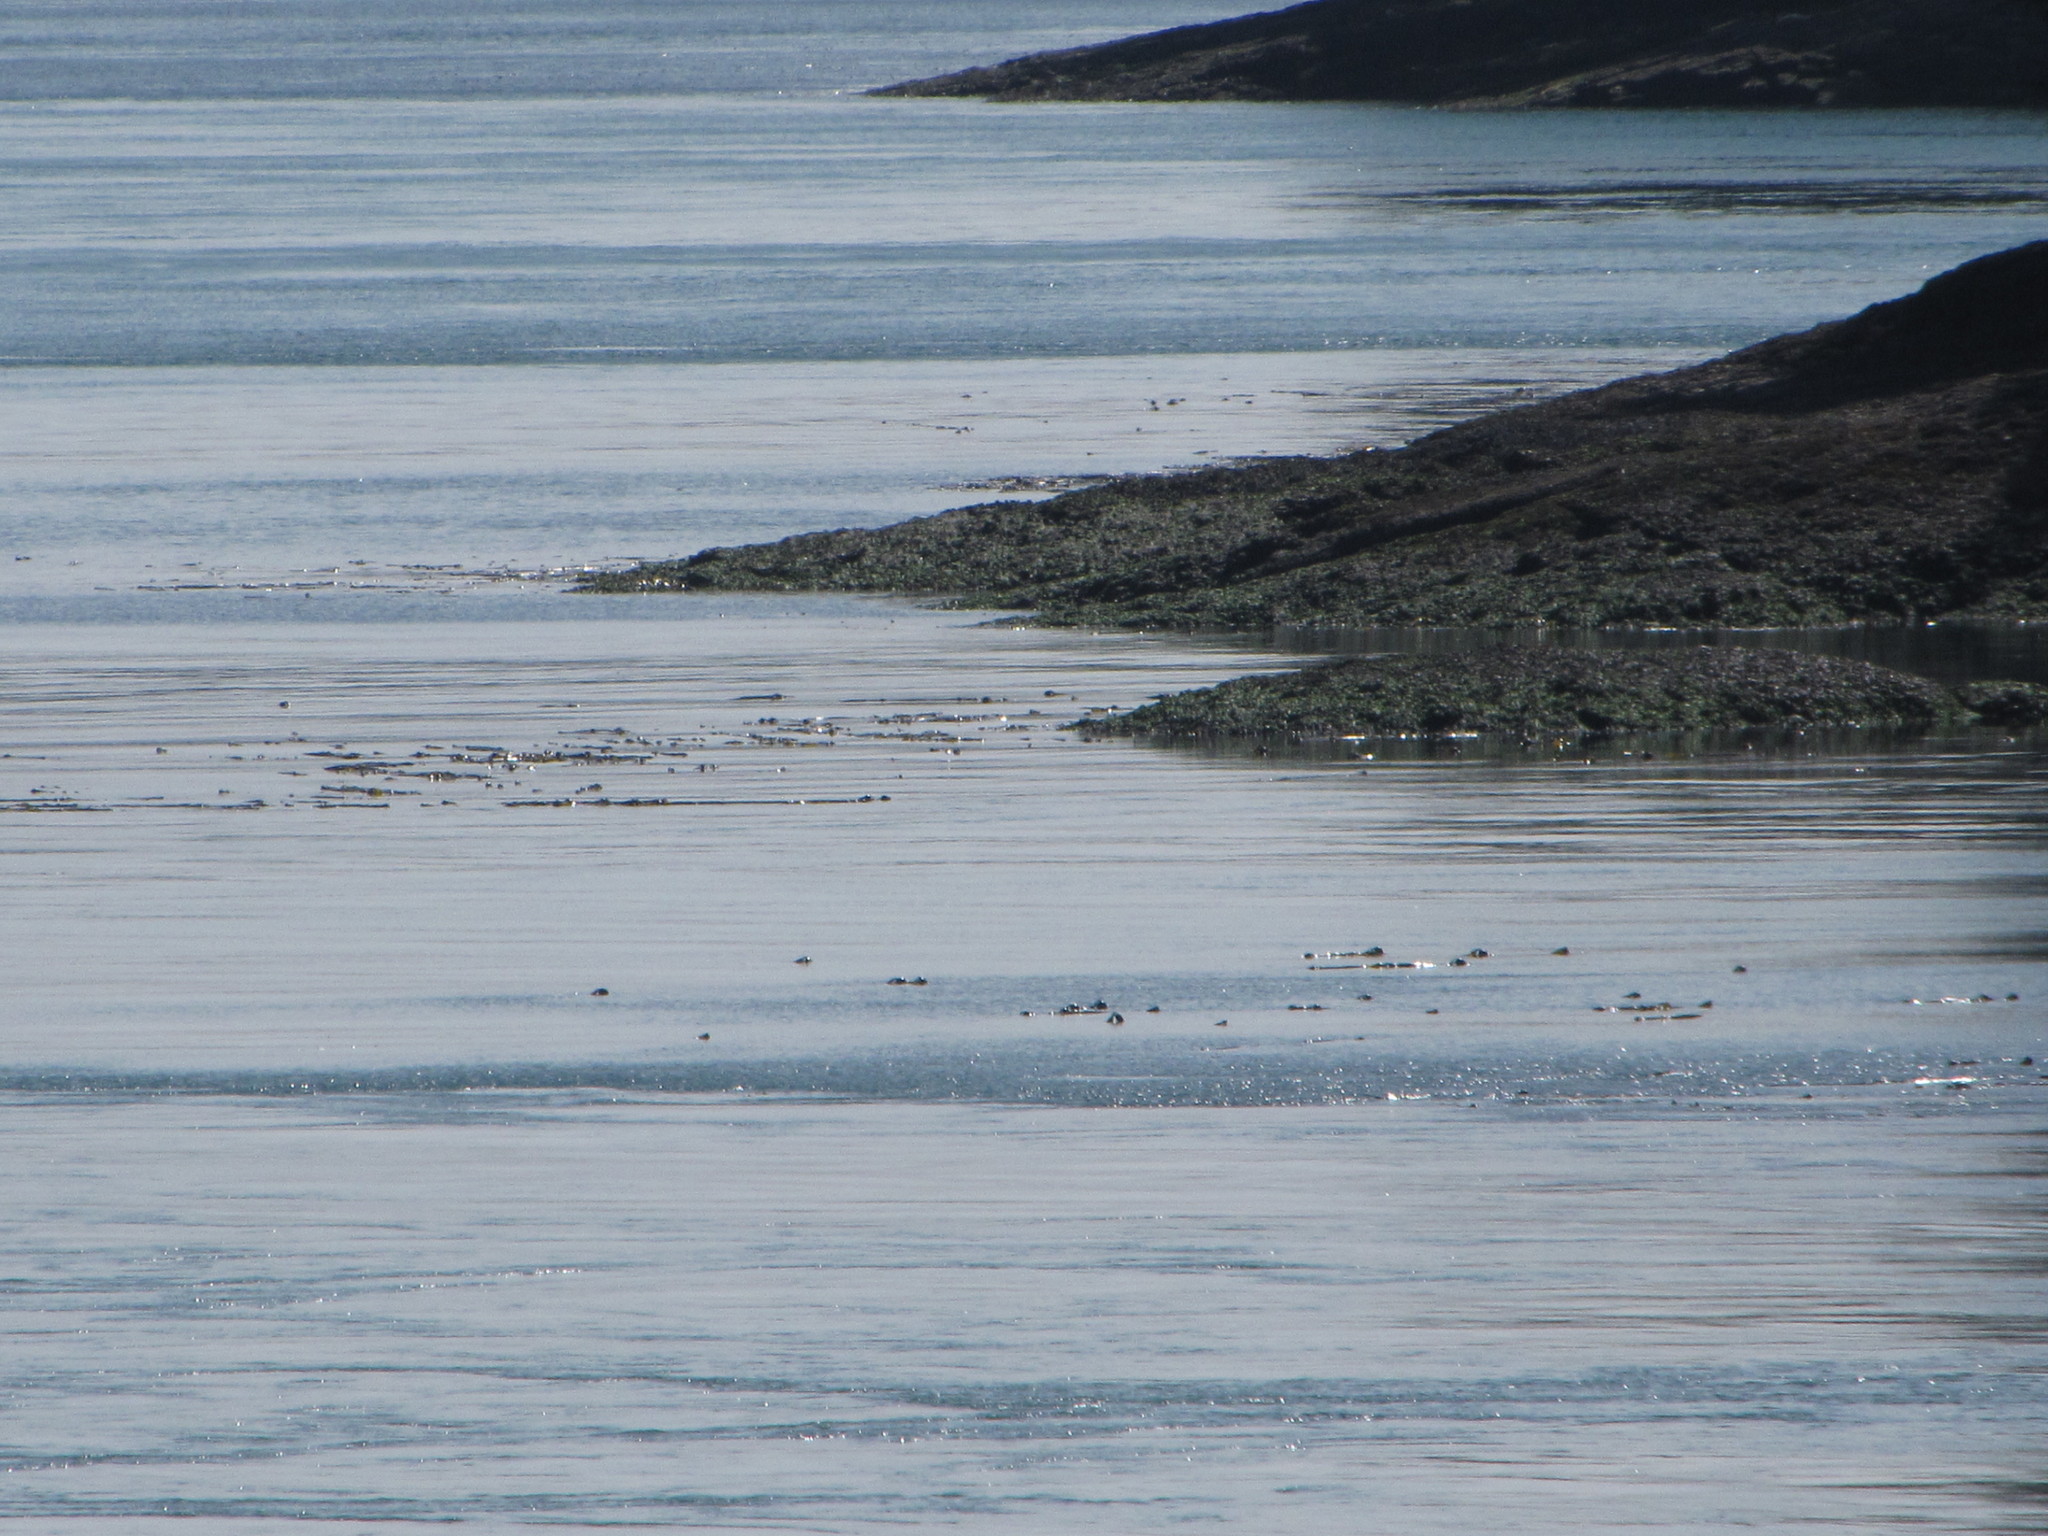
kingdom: Chromista
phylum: Ochrophyta
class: Phaeophyceae
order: Laminariales
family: Laminariaceae
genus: Nereocystis
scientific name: Nereocystis luetkeana
